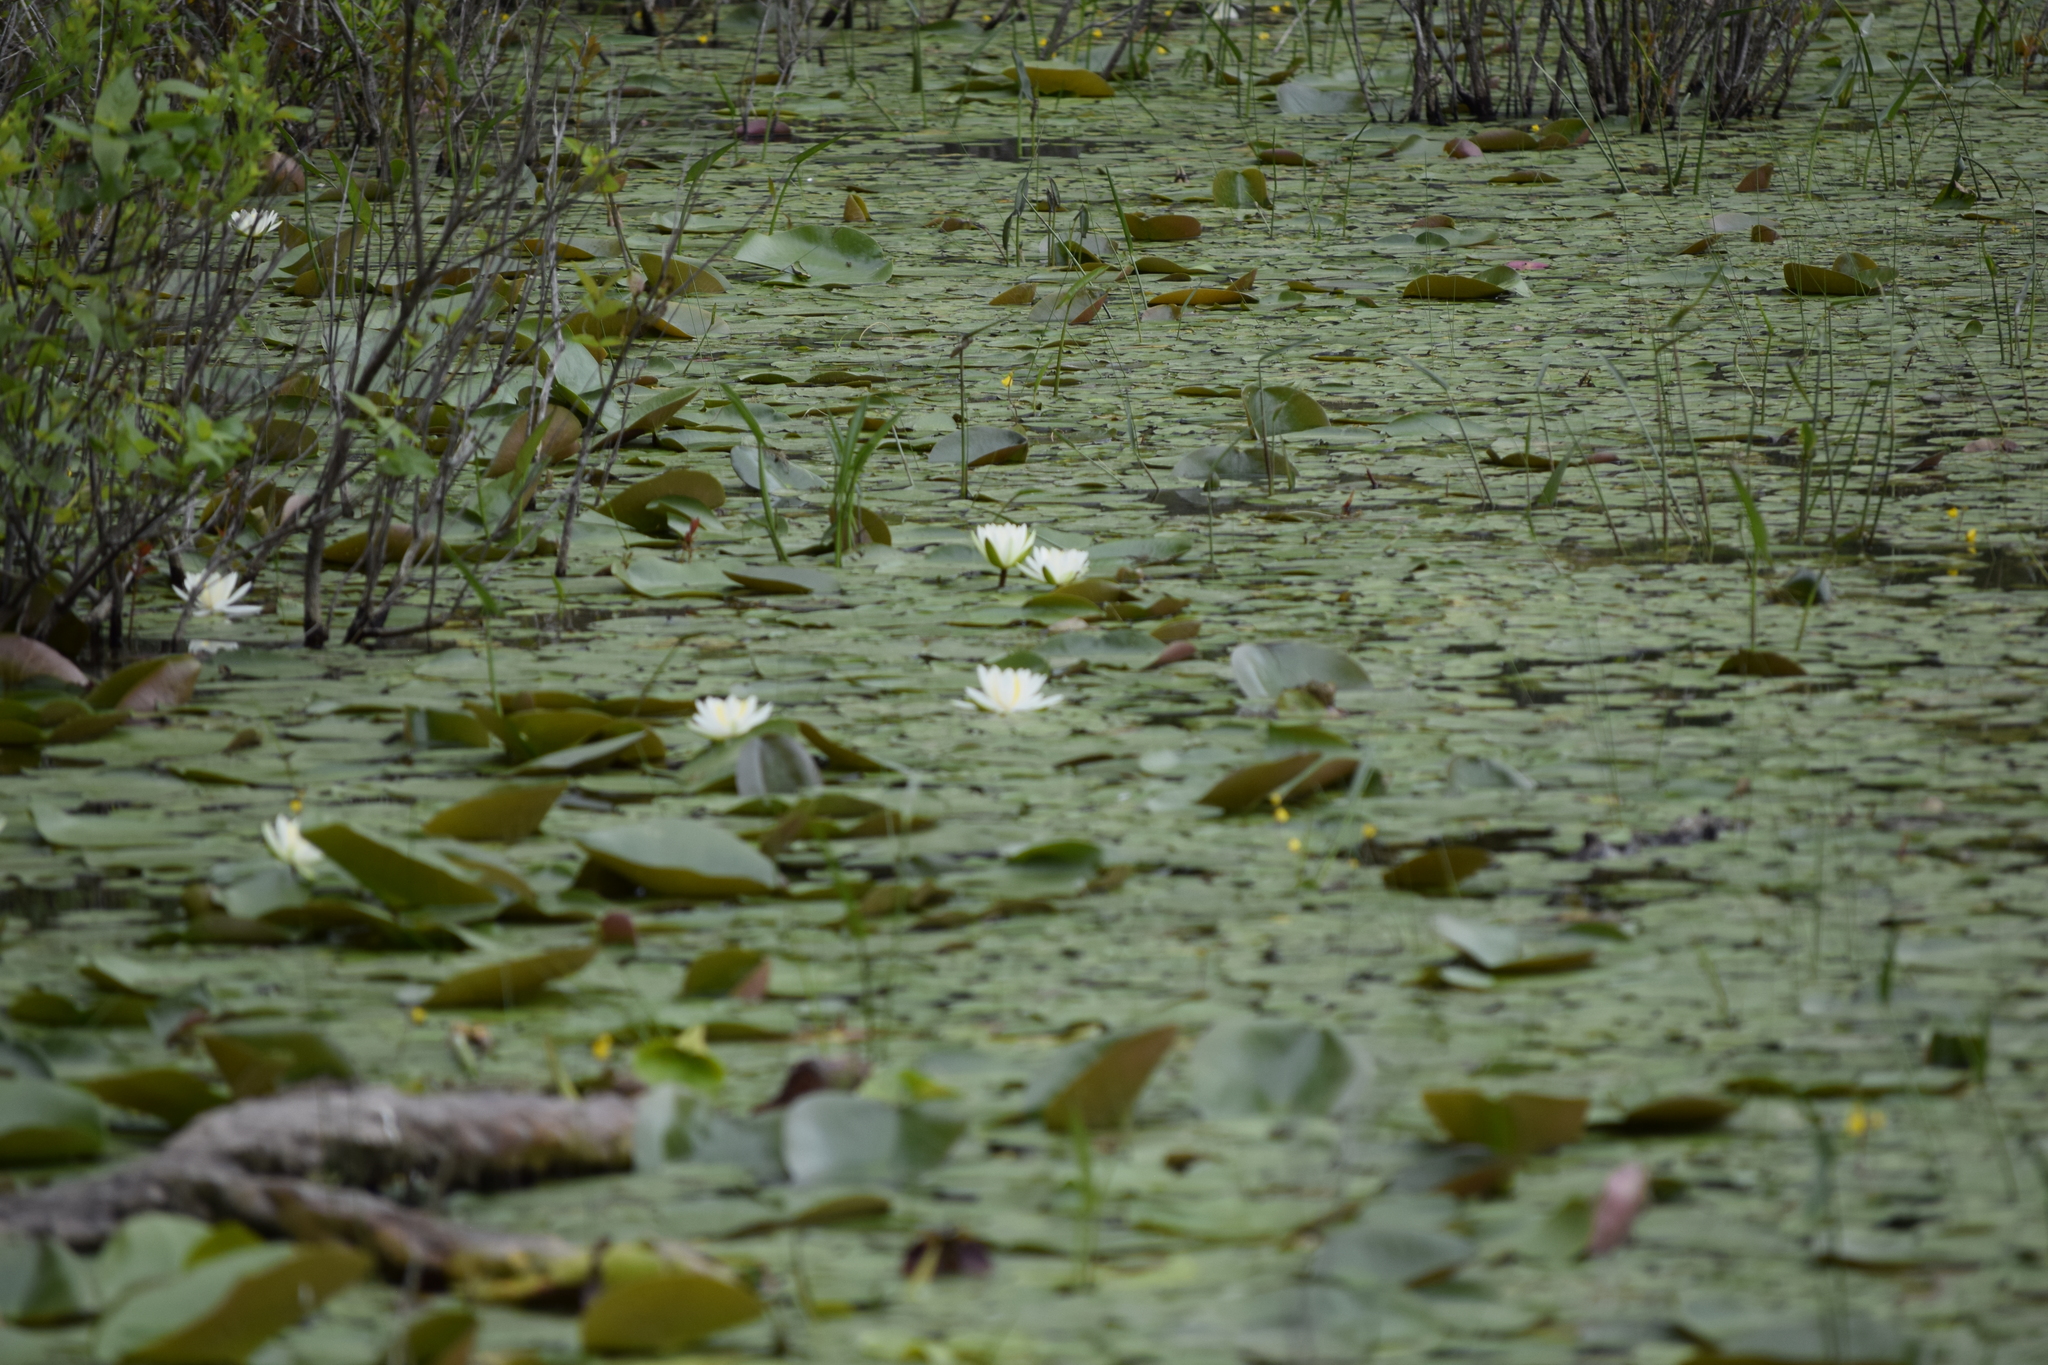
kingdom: Plantae
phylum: Tracheophyta
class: Magnoliopsida
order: Nymphaeales
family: Nymphaeaceae
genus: Nymphaea
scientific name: Nymphaea odorata
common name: Fragrant water-lily
